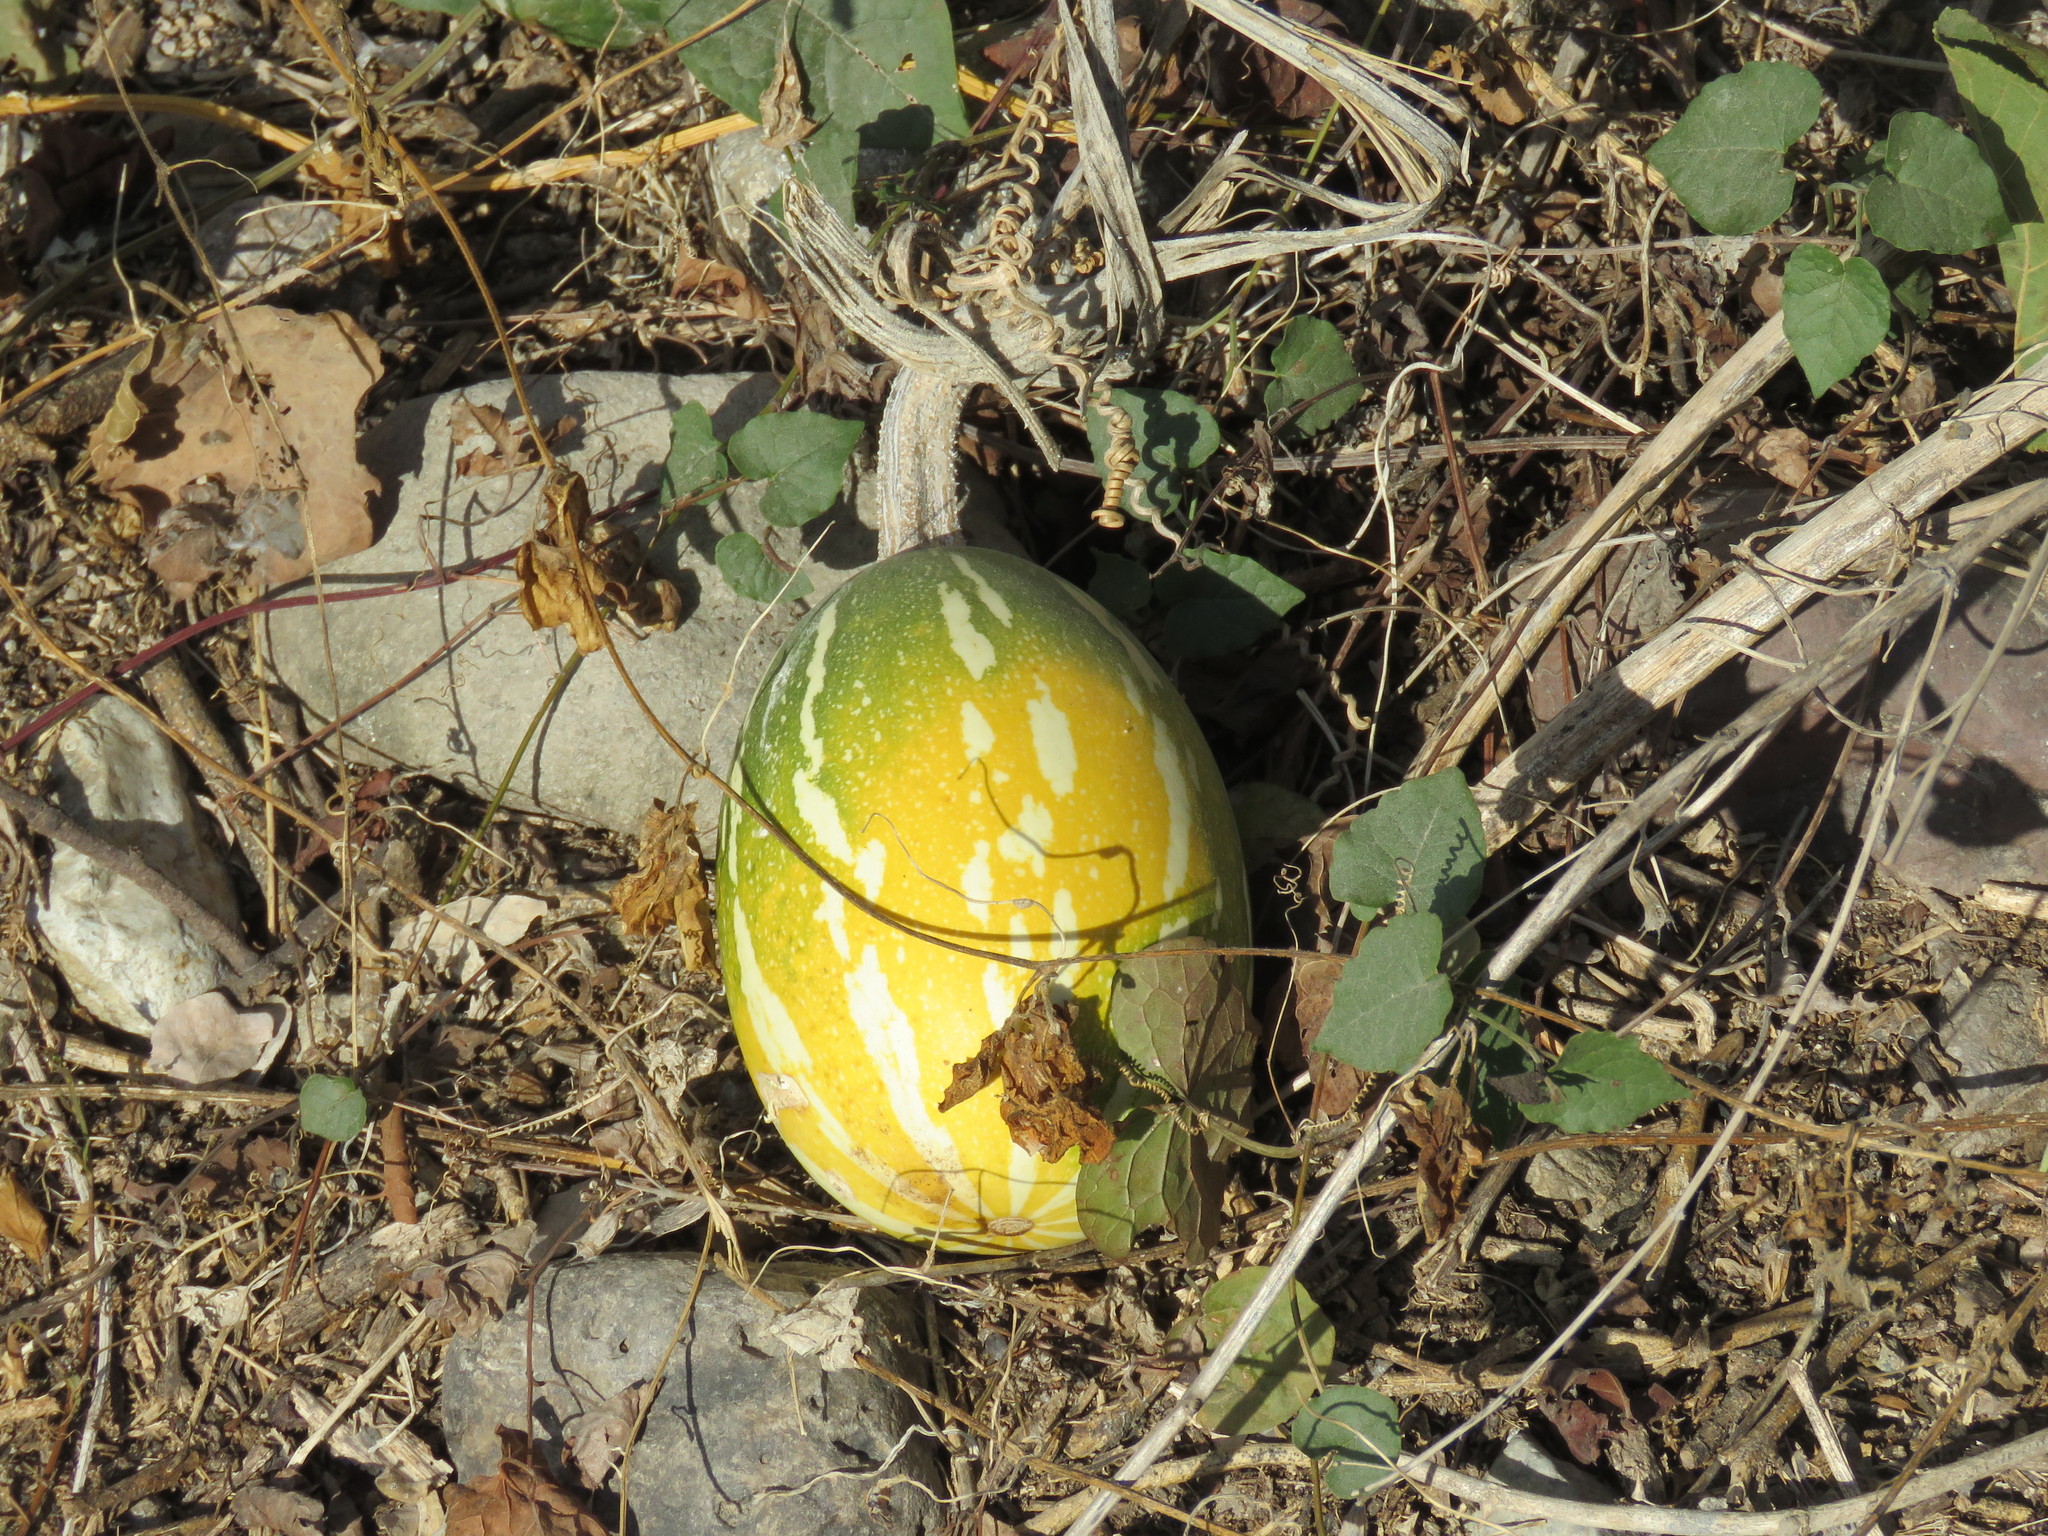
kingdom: Plantae
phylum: Tracheophyta
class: Magnoliopsida
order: Cucurbitales
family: Cucurbitaceae
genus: Cucurbita
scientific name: Cucurbita argyrosperma
